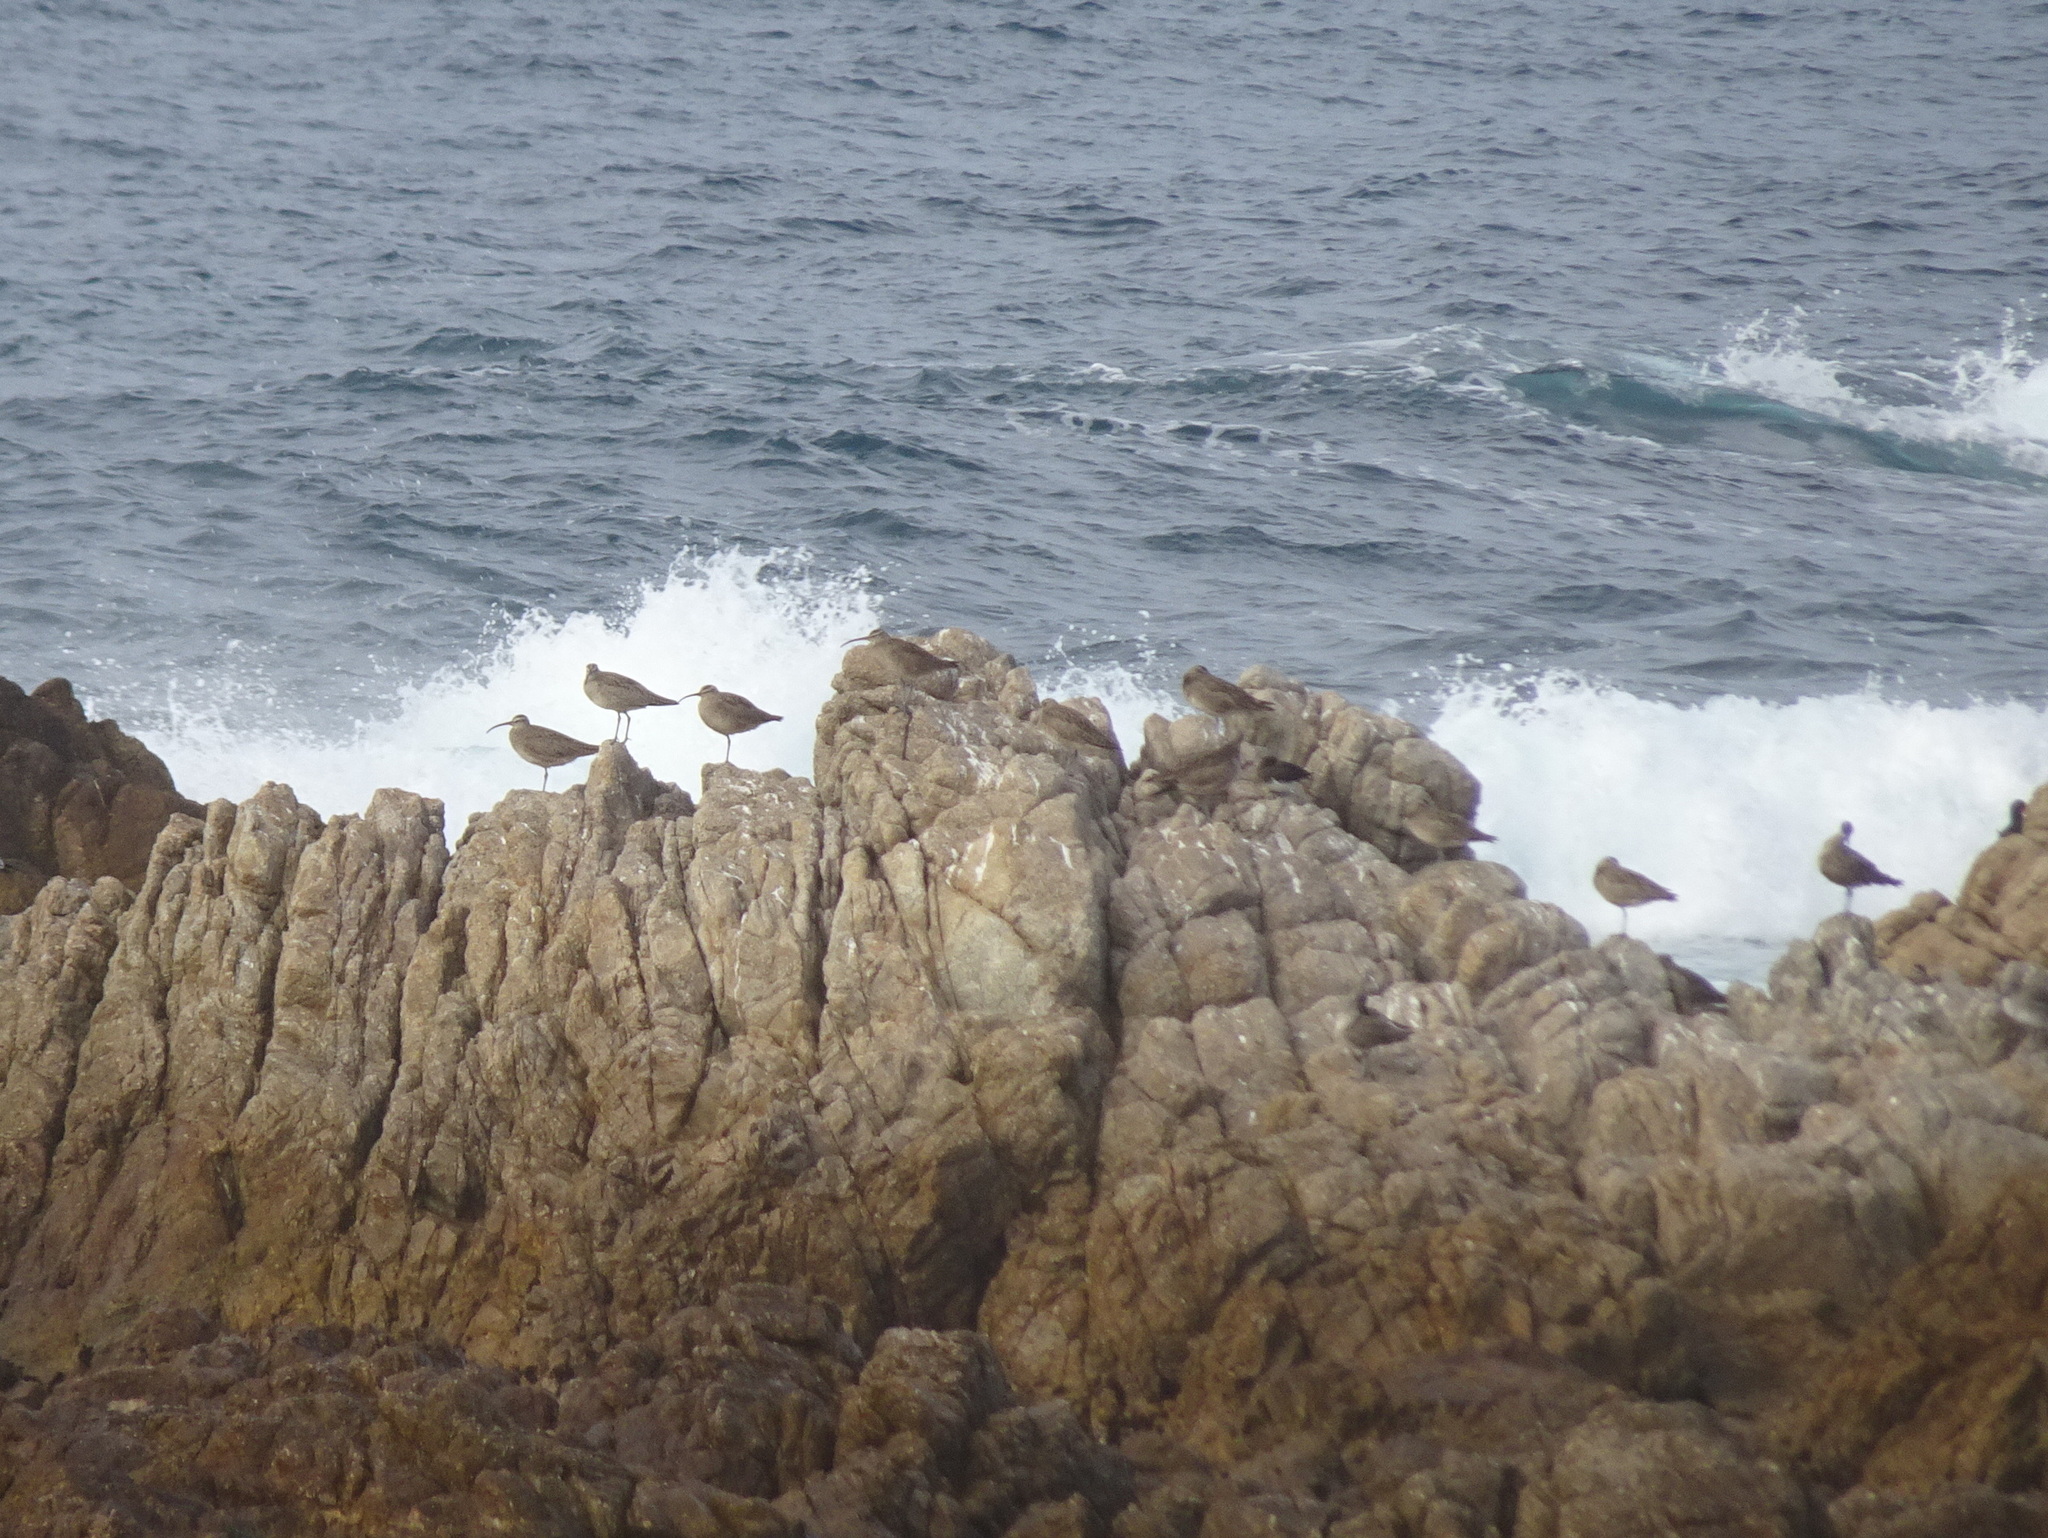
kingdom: Animalia
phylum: Chordata
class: Aves
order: Charadriiformes
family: Scolopacidae
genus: Numenius
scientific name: Numenius phaeopus
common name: Whimbrel
